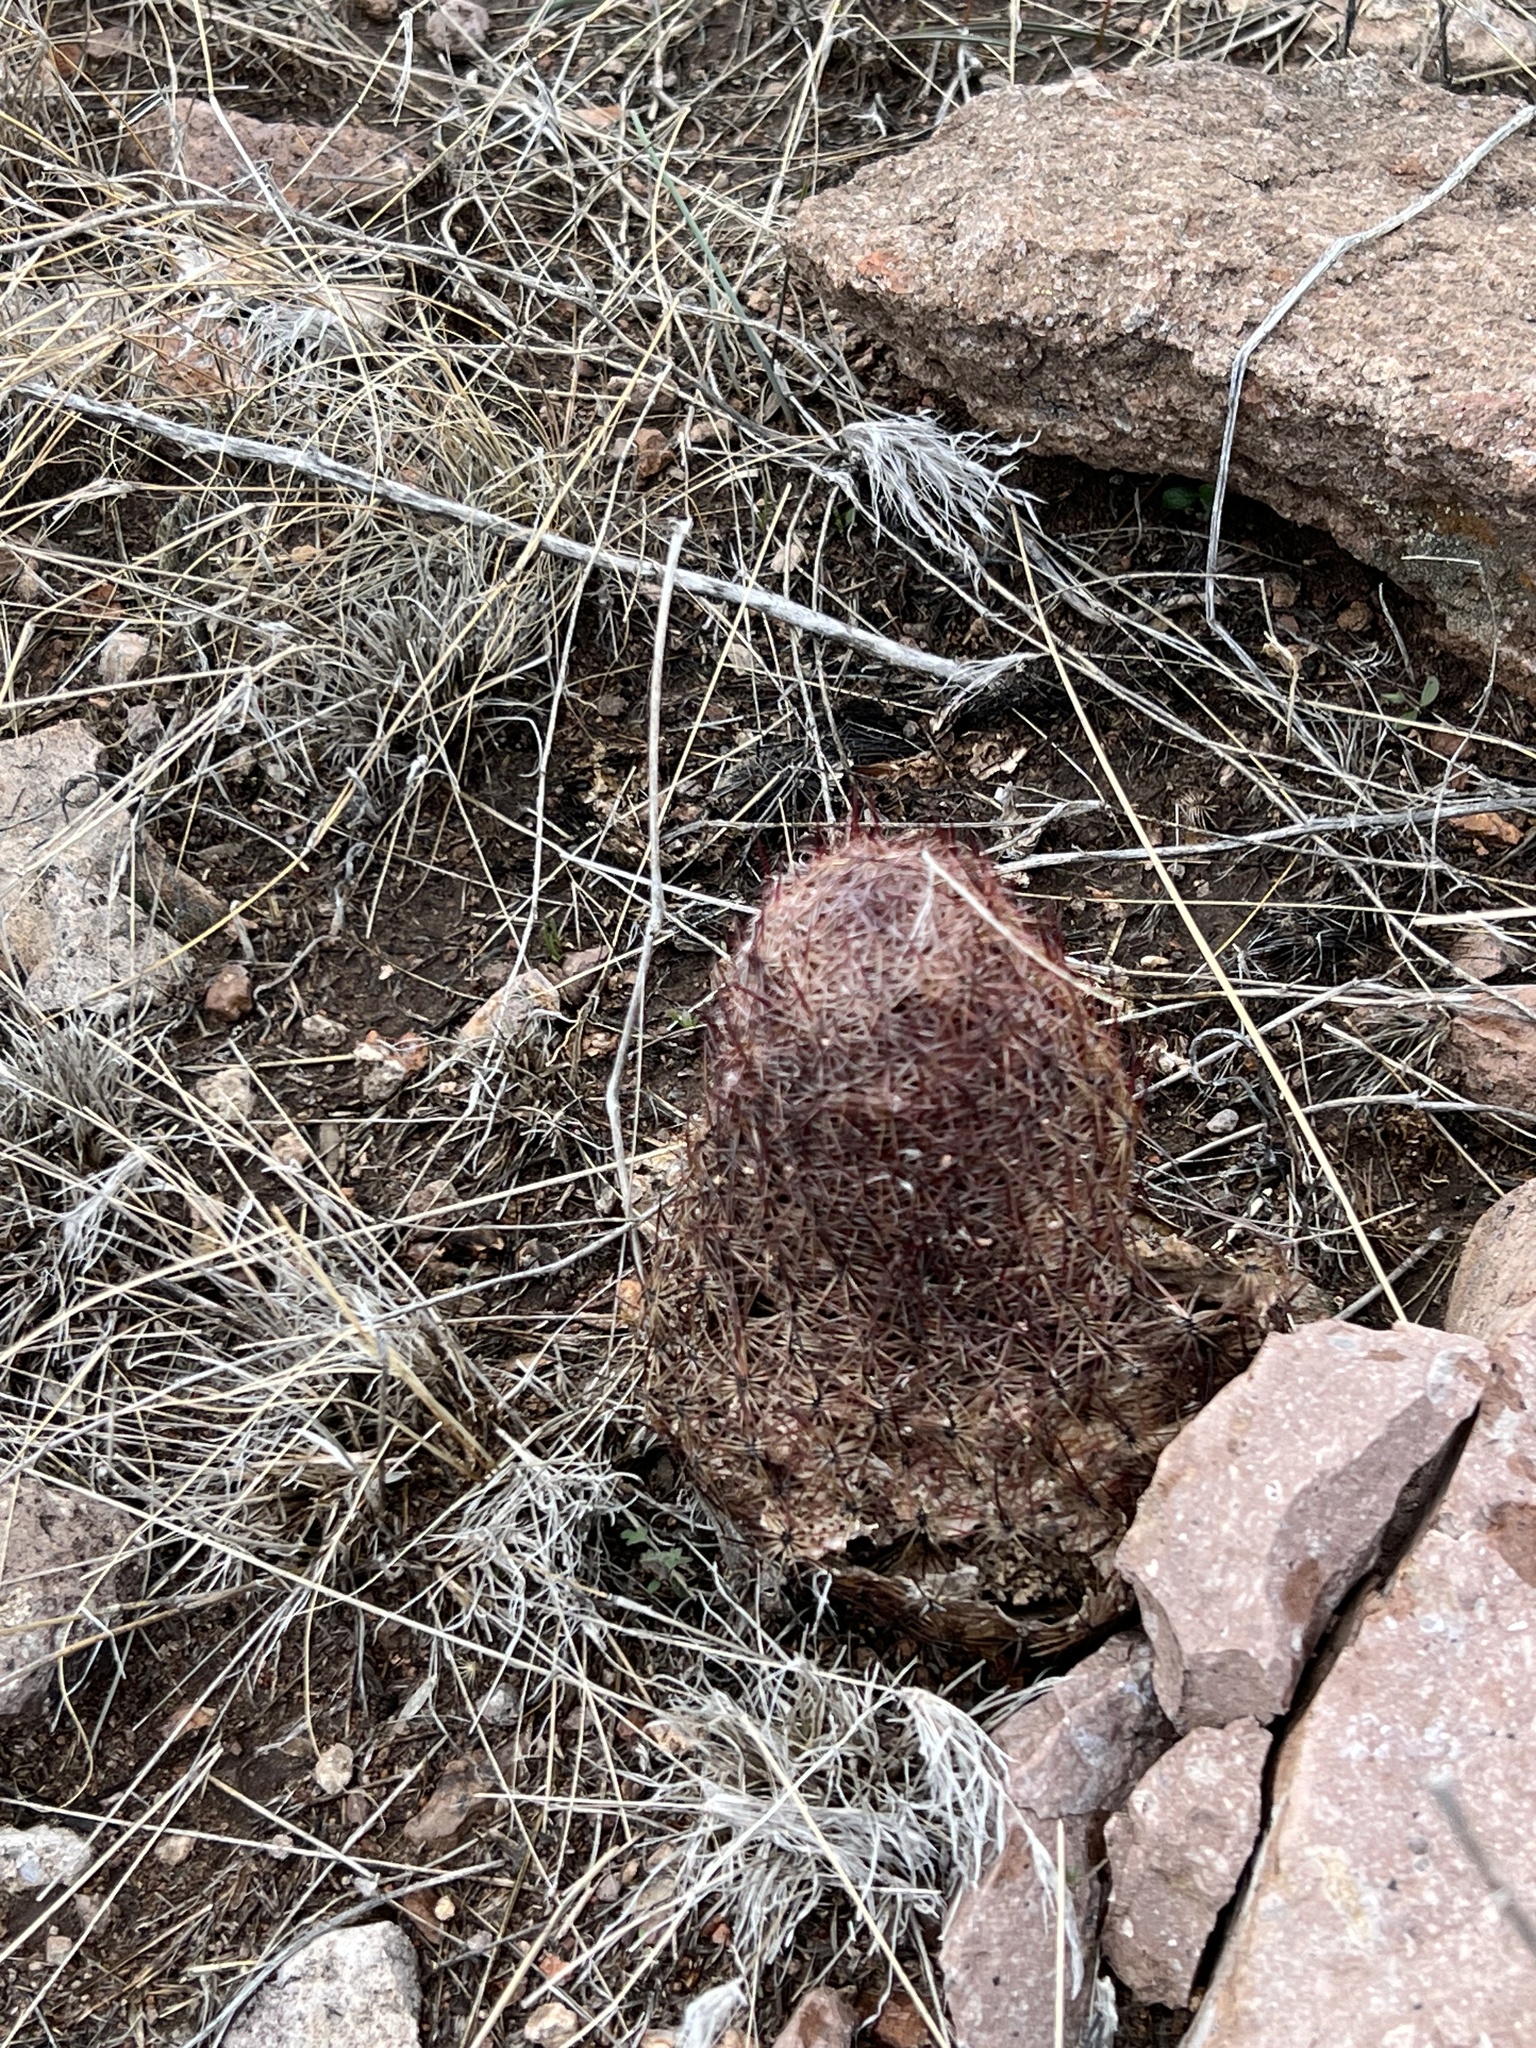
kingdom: Plantae
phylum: Tracheophyta
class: Magnoliopsida
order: Caryophyllales
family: Cactaceae
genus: Sclerocactus
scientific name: Sclerocactus johnsonii
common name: Eight-spine fishhook cactus
